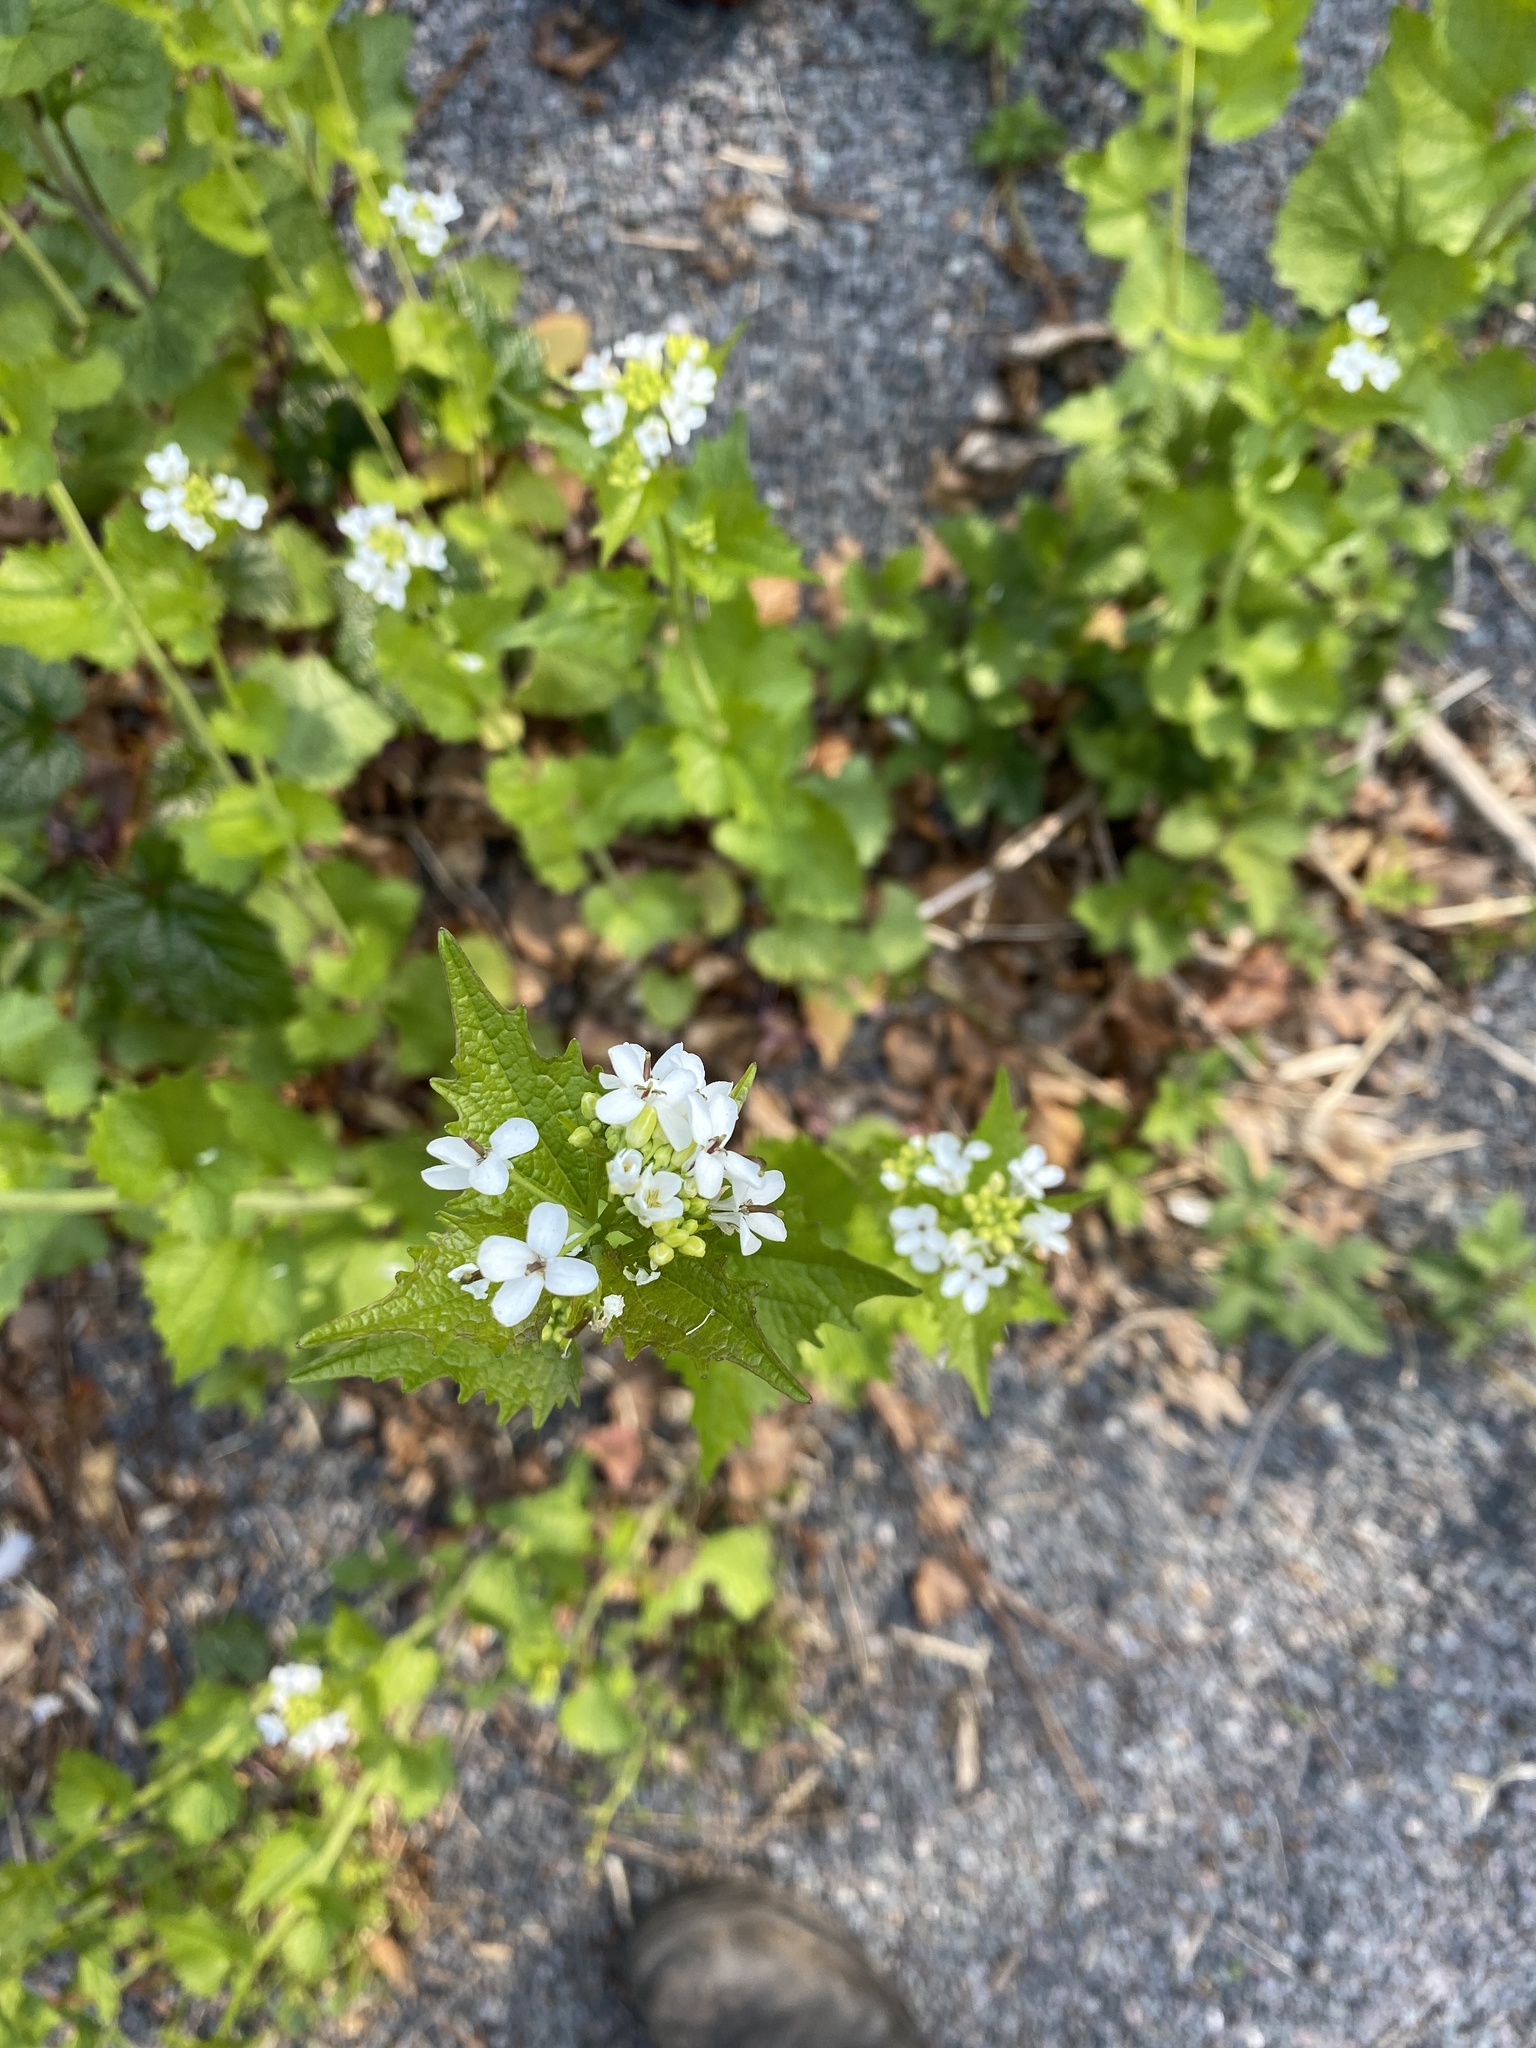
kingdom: Plantae
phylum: Tracheophyta
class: Magnoliopsida
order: Brassicales
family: Brassicaceae
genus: Alliaria
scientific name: Alliaria petiolata
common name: Garlic mustard
